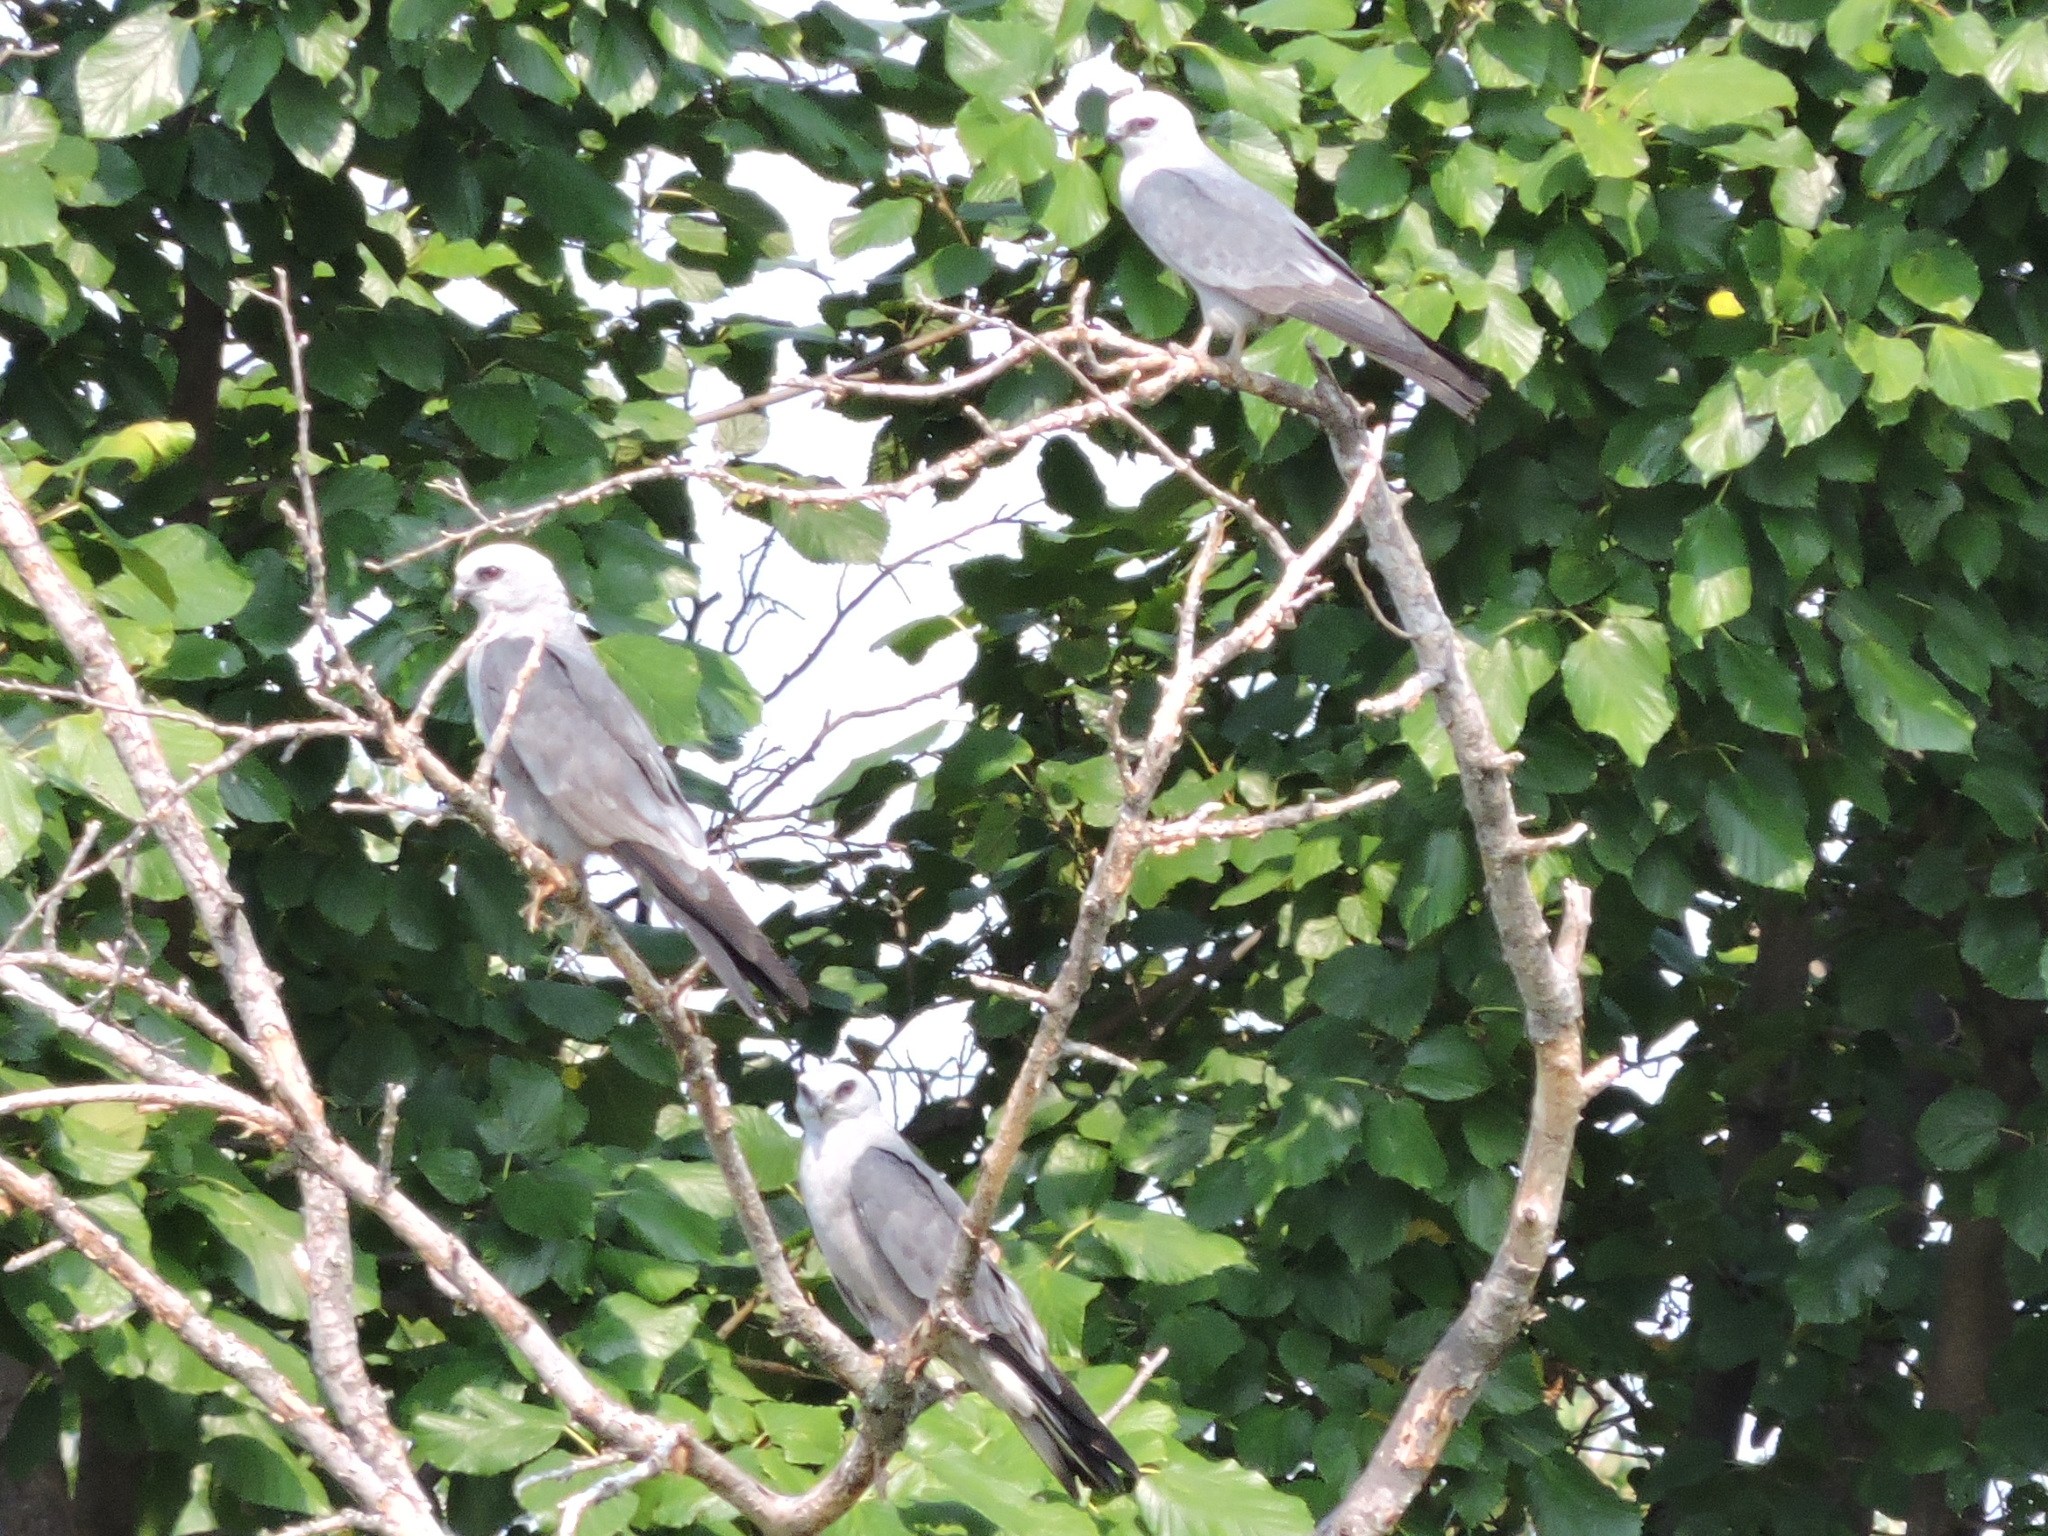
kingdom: Animalia
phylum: Chordata
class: Aves
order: Accipitriformes
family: Accipitridae
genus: Ictinia
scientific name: Ictinia mississippiensis
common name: Mississippi kite
